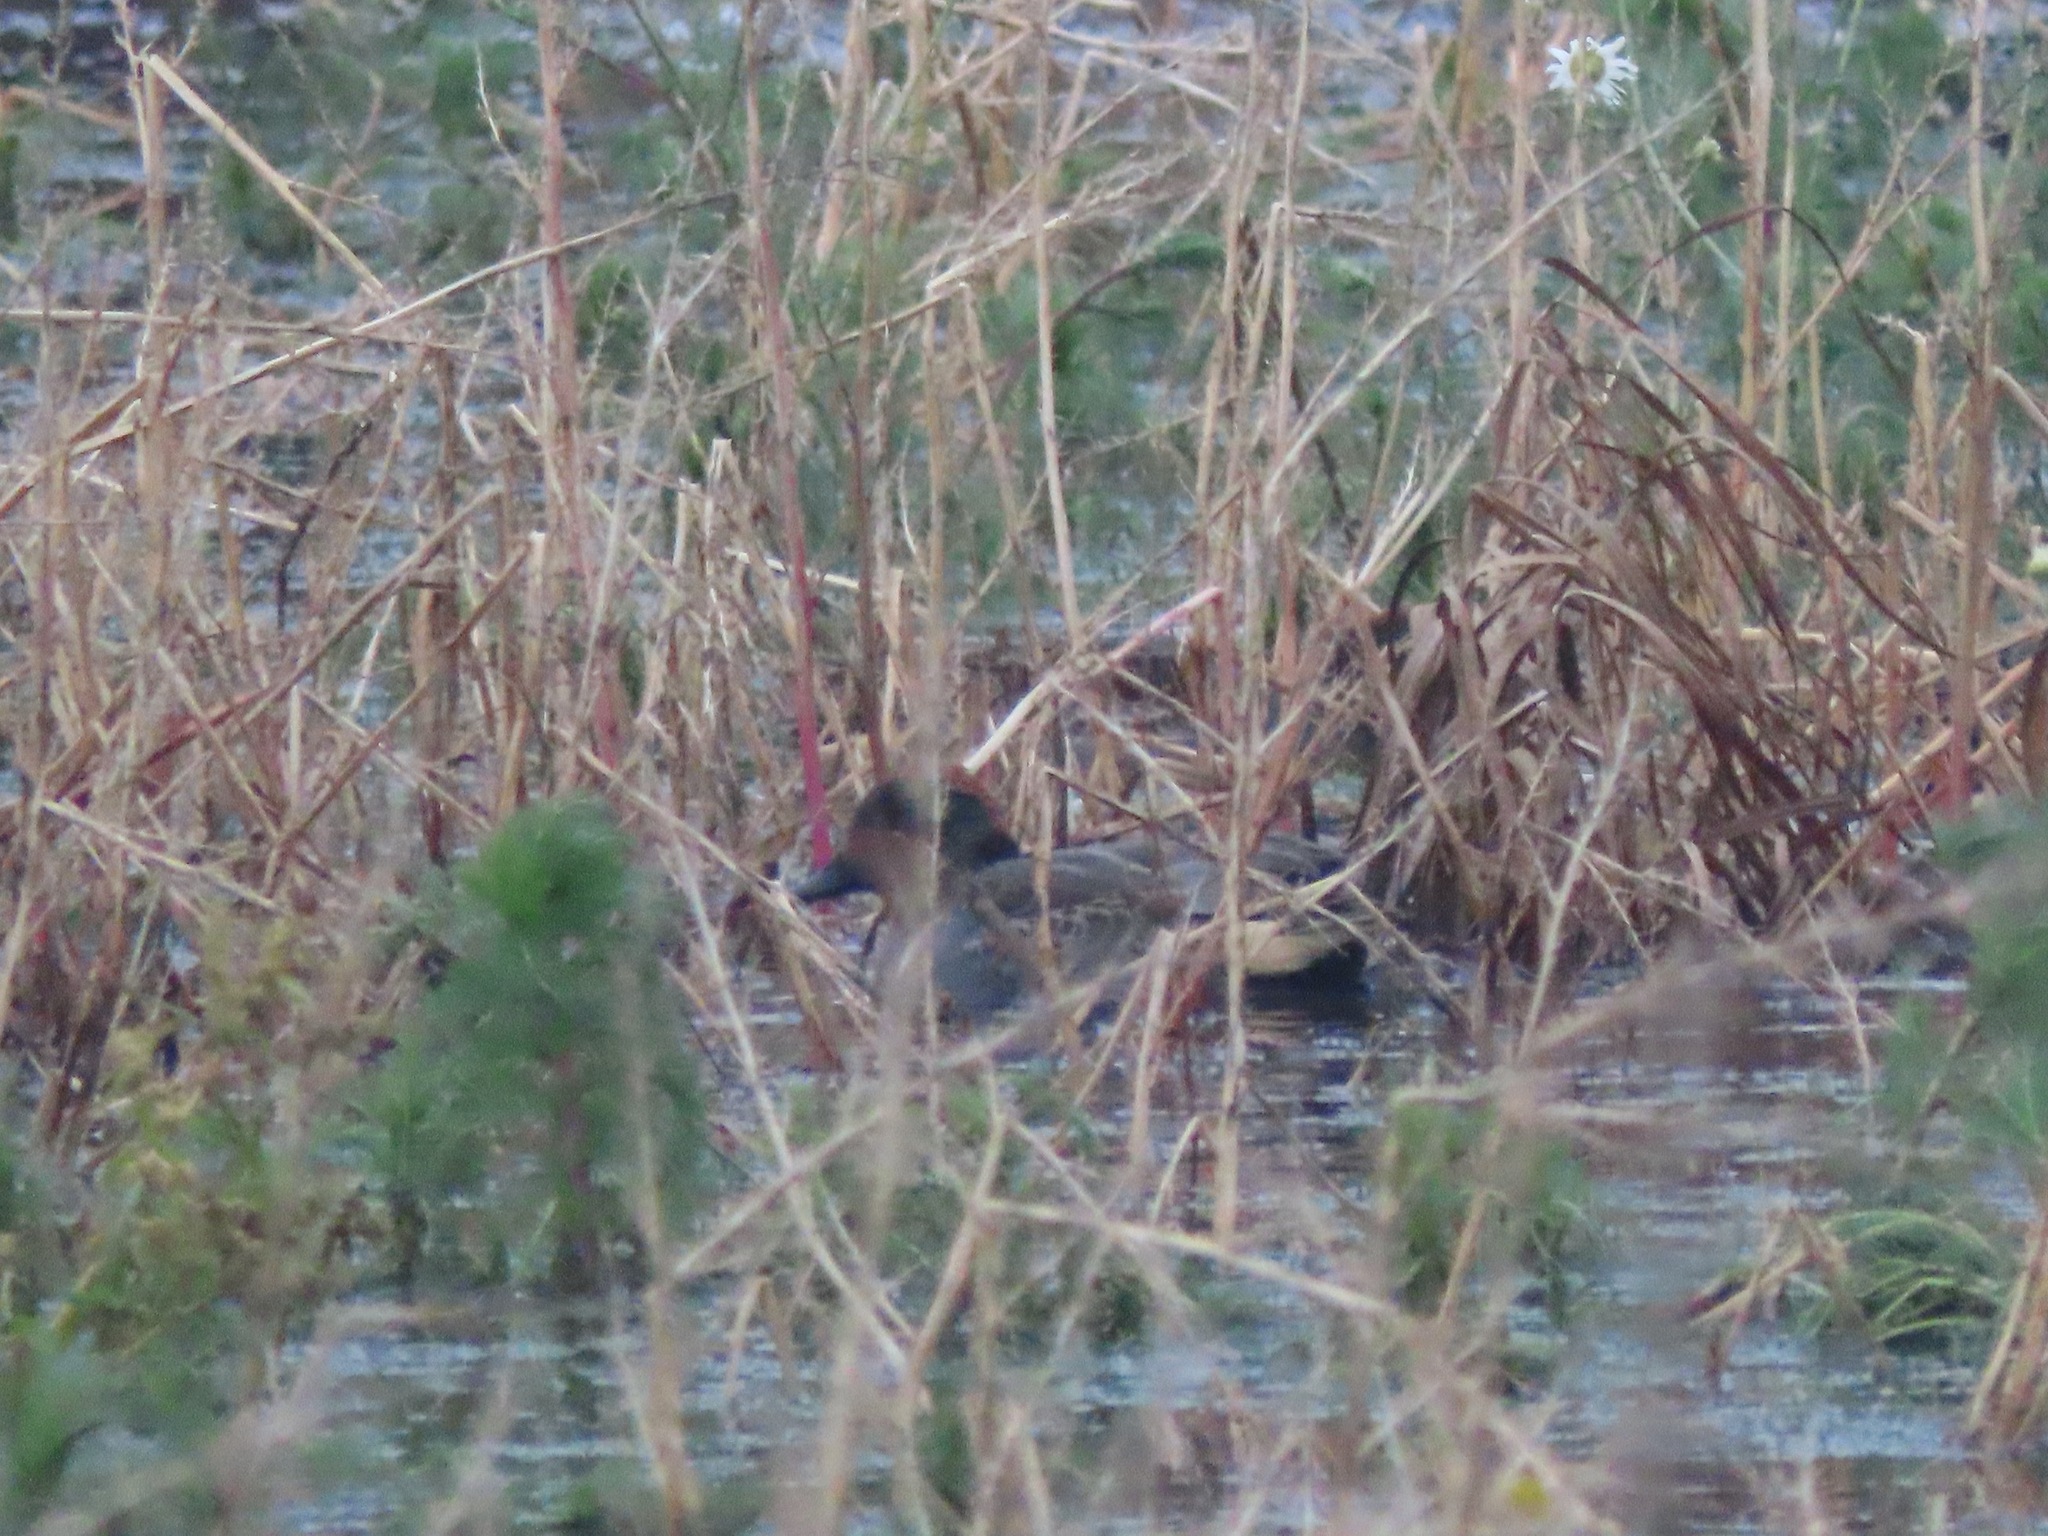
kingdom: Animalia
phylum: Chordata
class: Aves
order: Anseriformes
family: Anatidae
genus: Anas
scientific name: Anas crecca
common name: Eurasian teal
